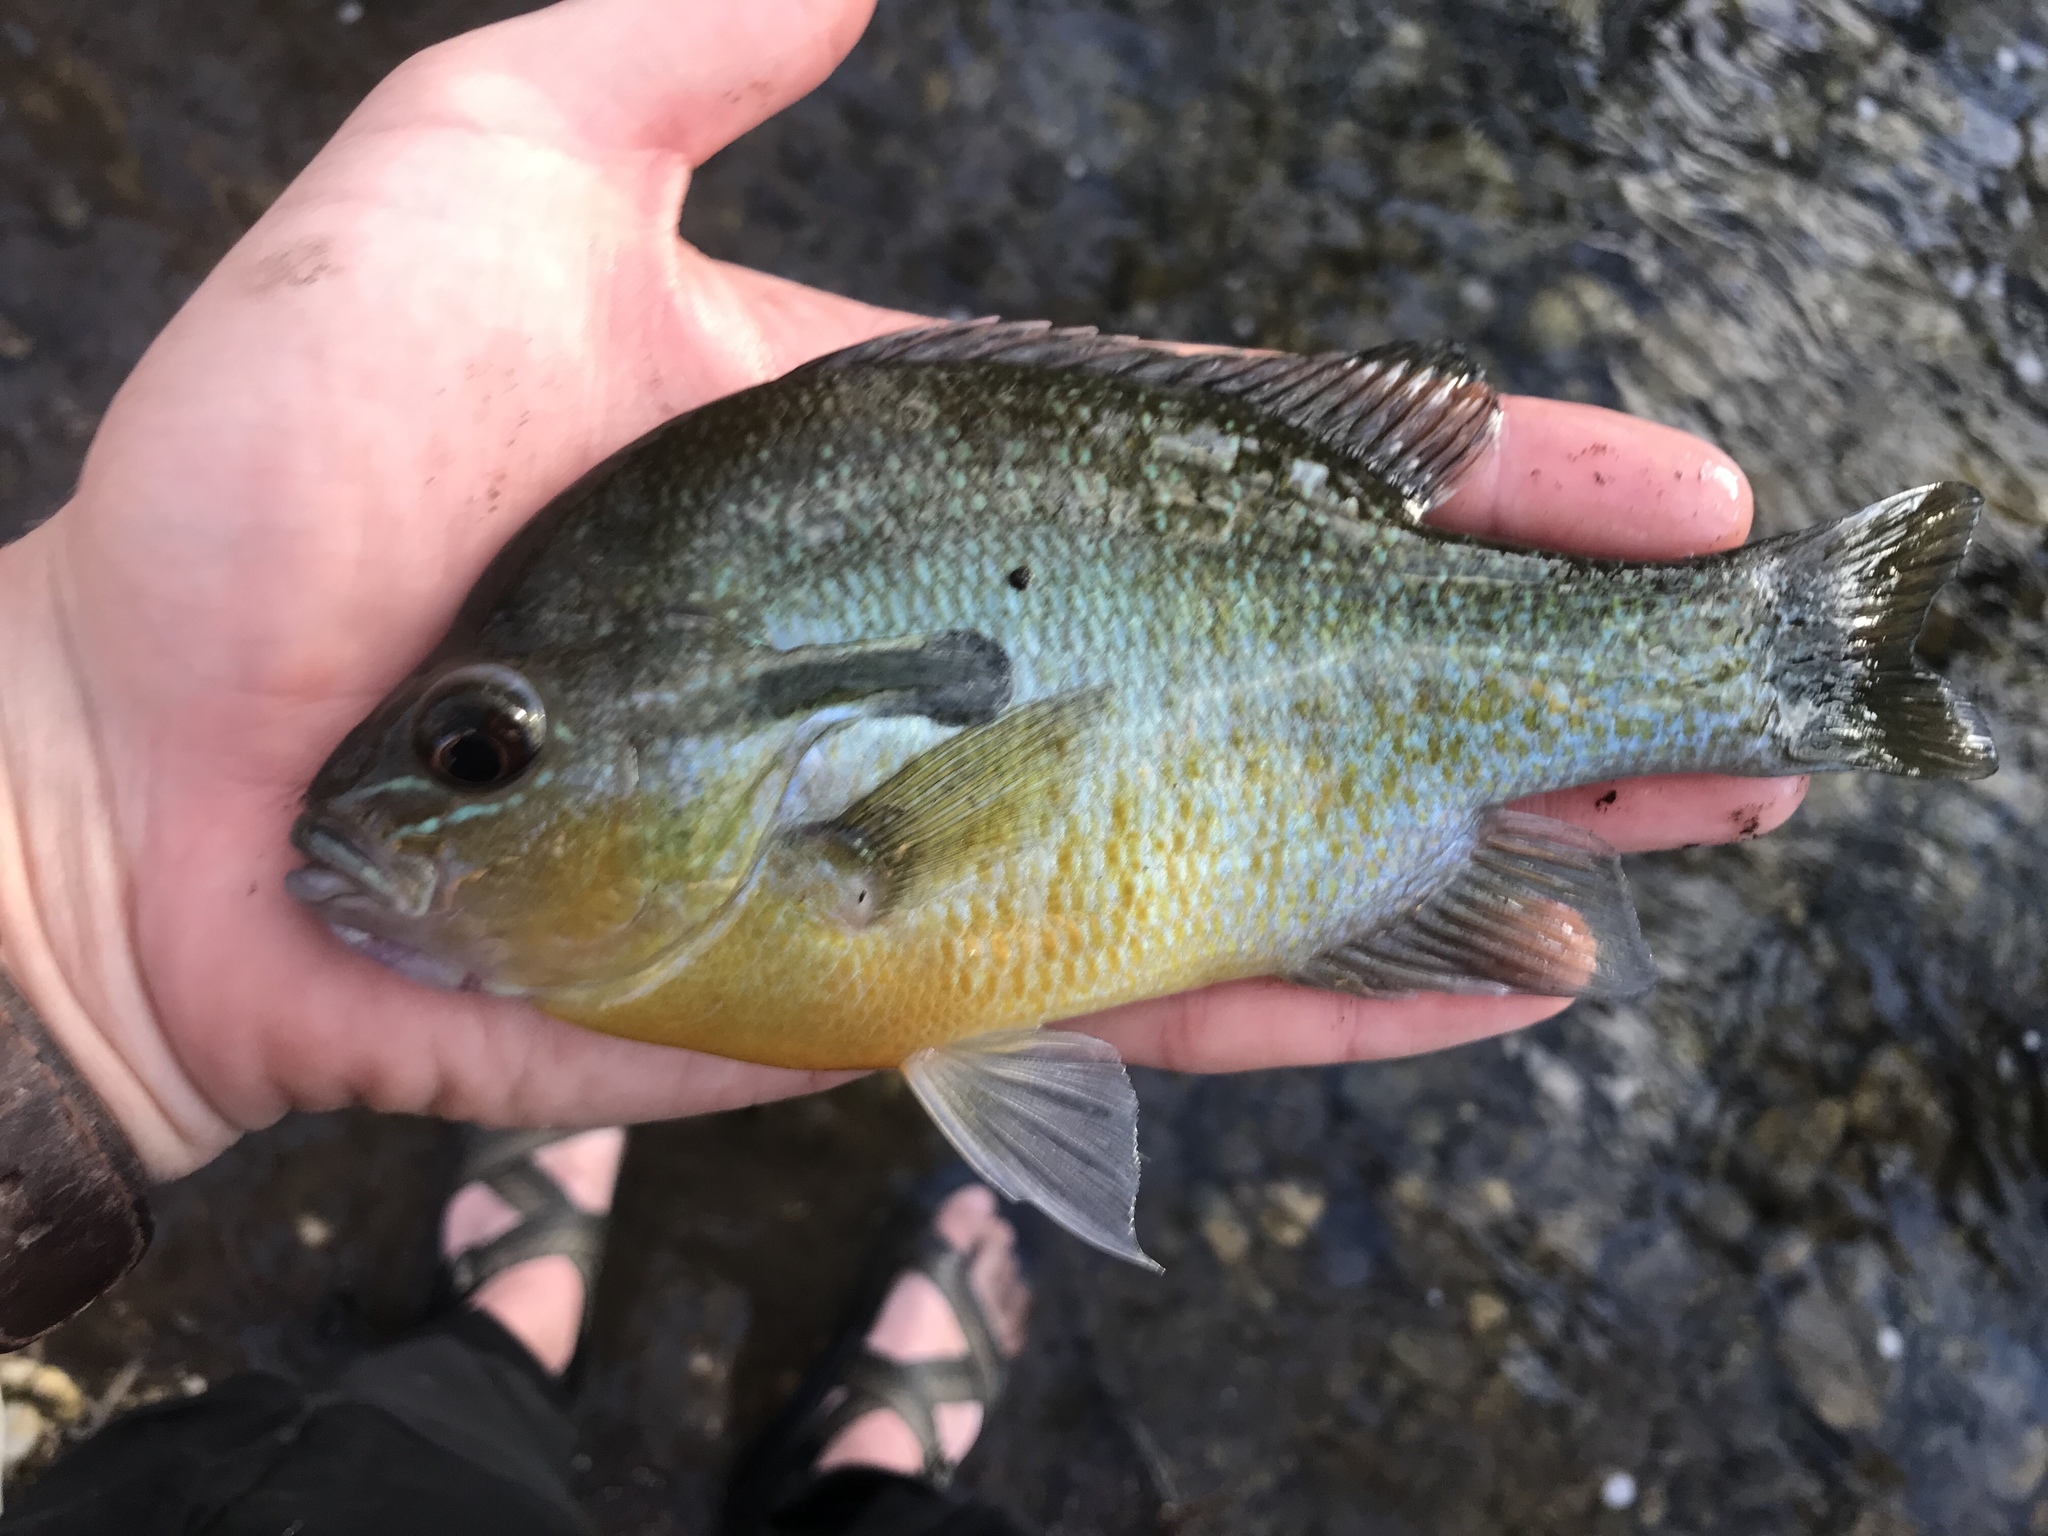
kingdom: Animalia
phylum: Chordata
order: Perciformes
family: Centrarchidae
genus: Lepomis
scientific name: Lepomis auritus
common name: Redbreast sunfish
